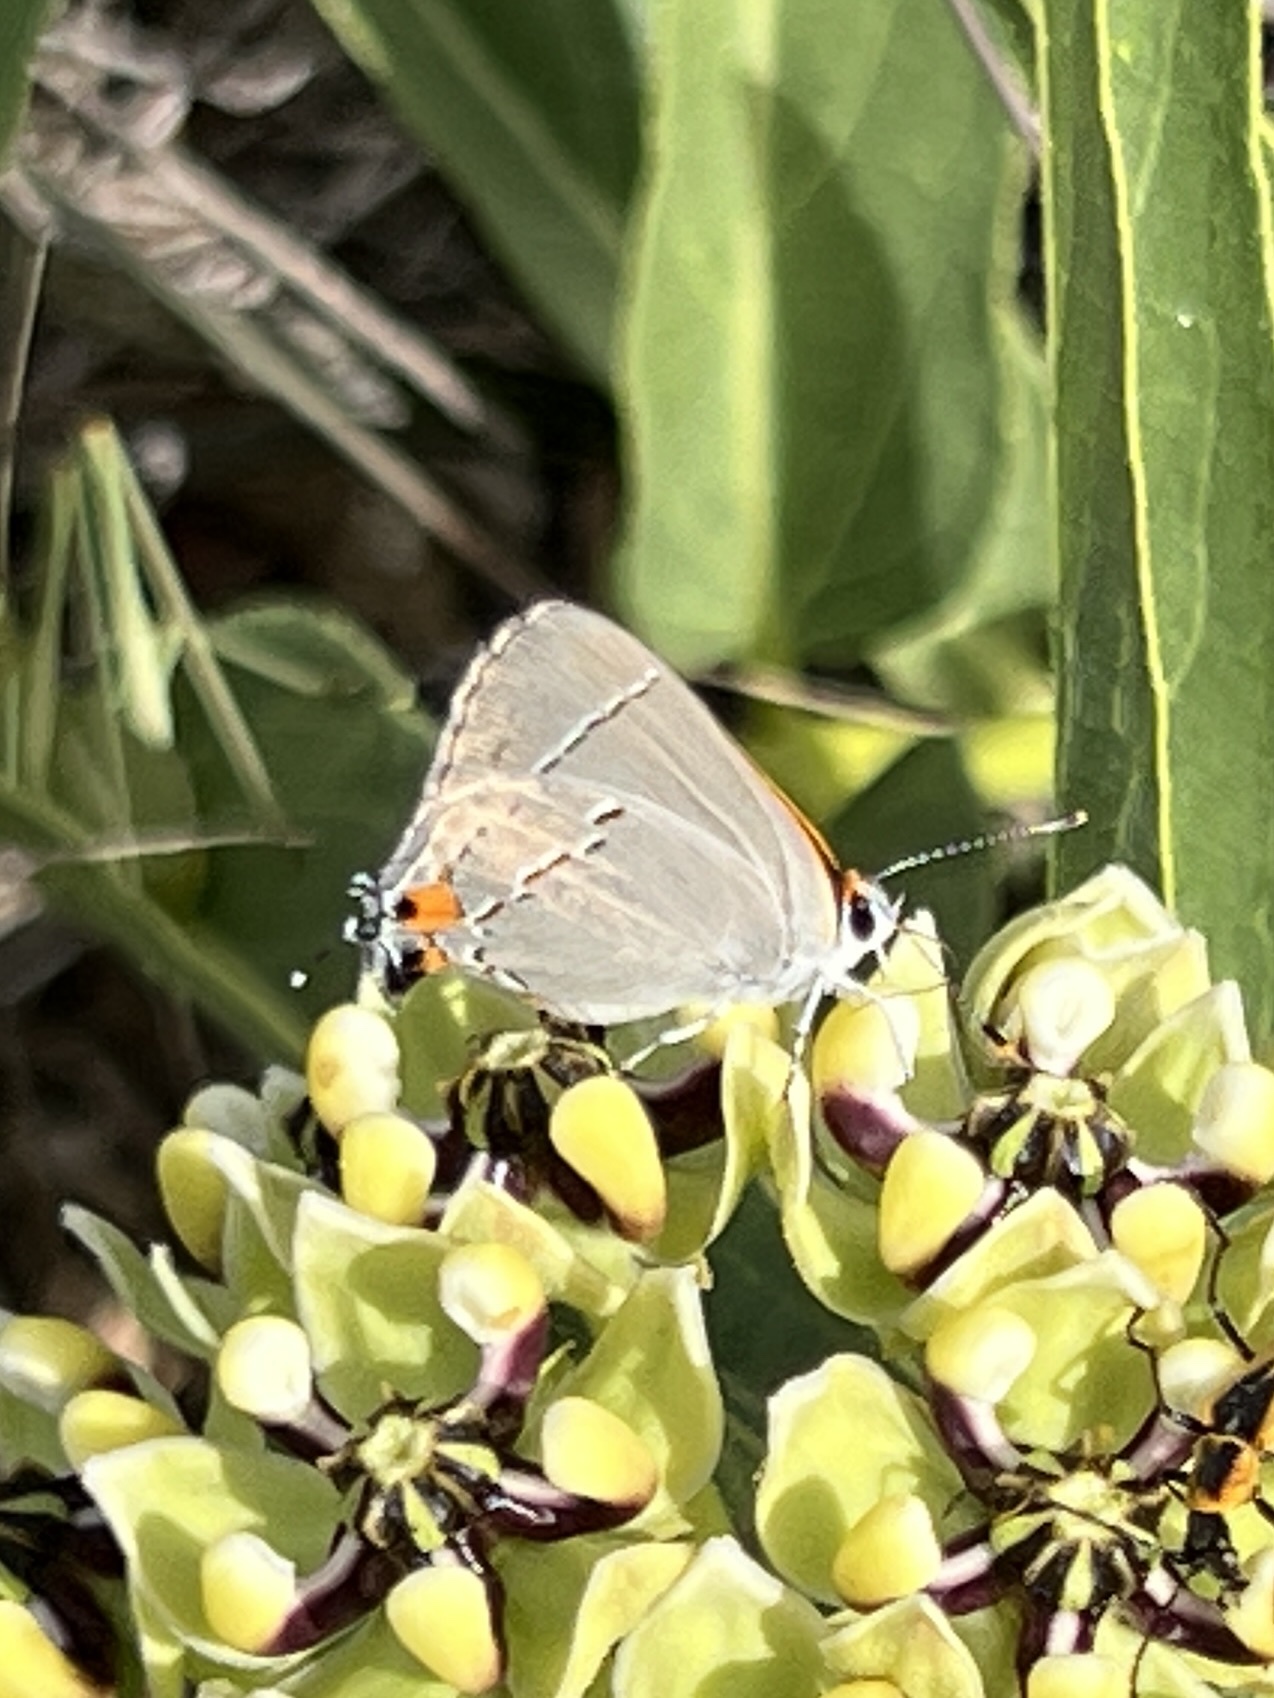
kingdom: Animalia
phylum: Arthropoda
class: Insecta
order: Lepidoptera
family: Lycaenidae
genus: Strymon
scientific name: Strymon melinus
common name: Gray hairstreak
